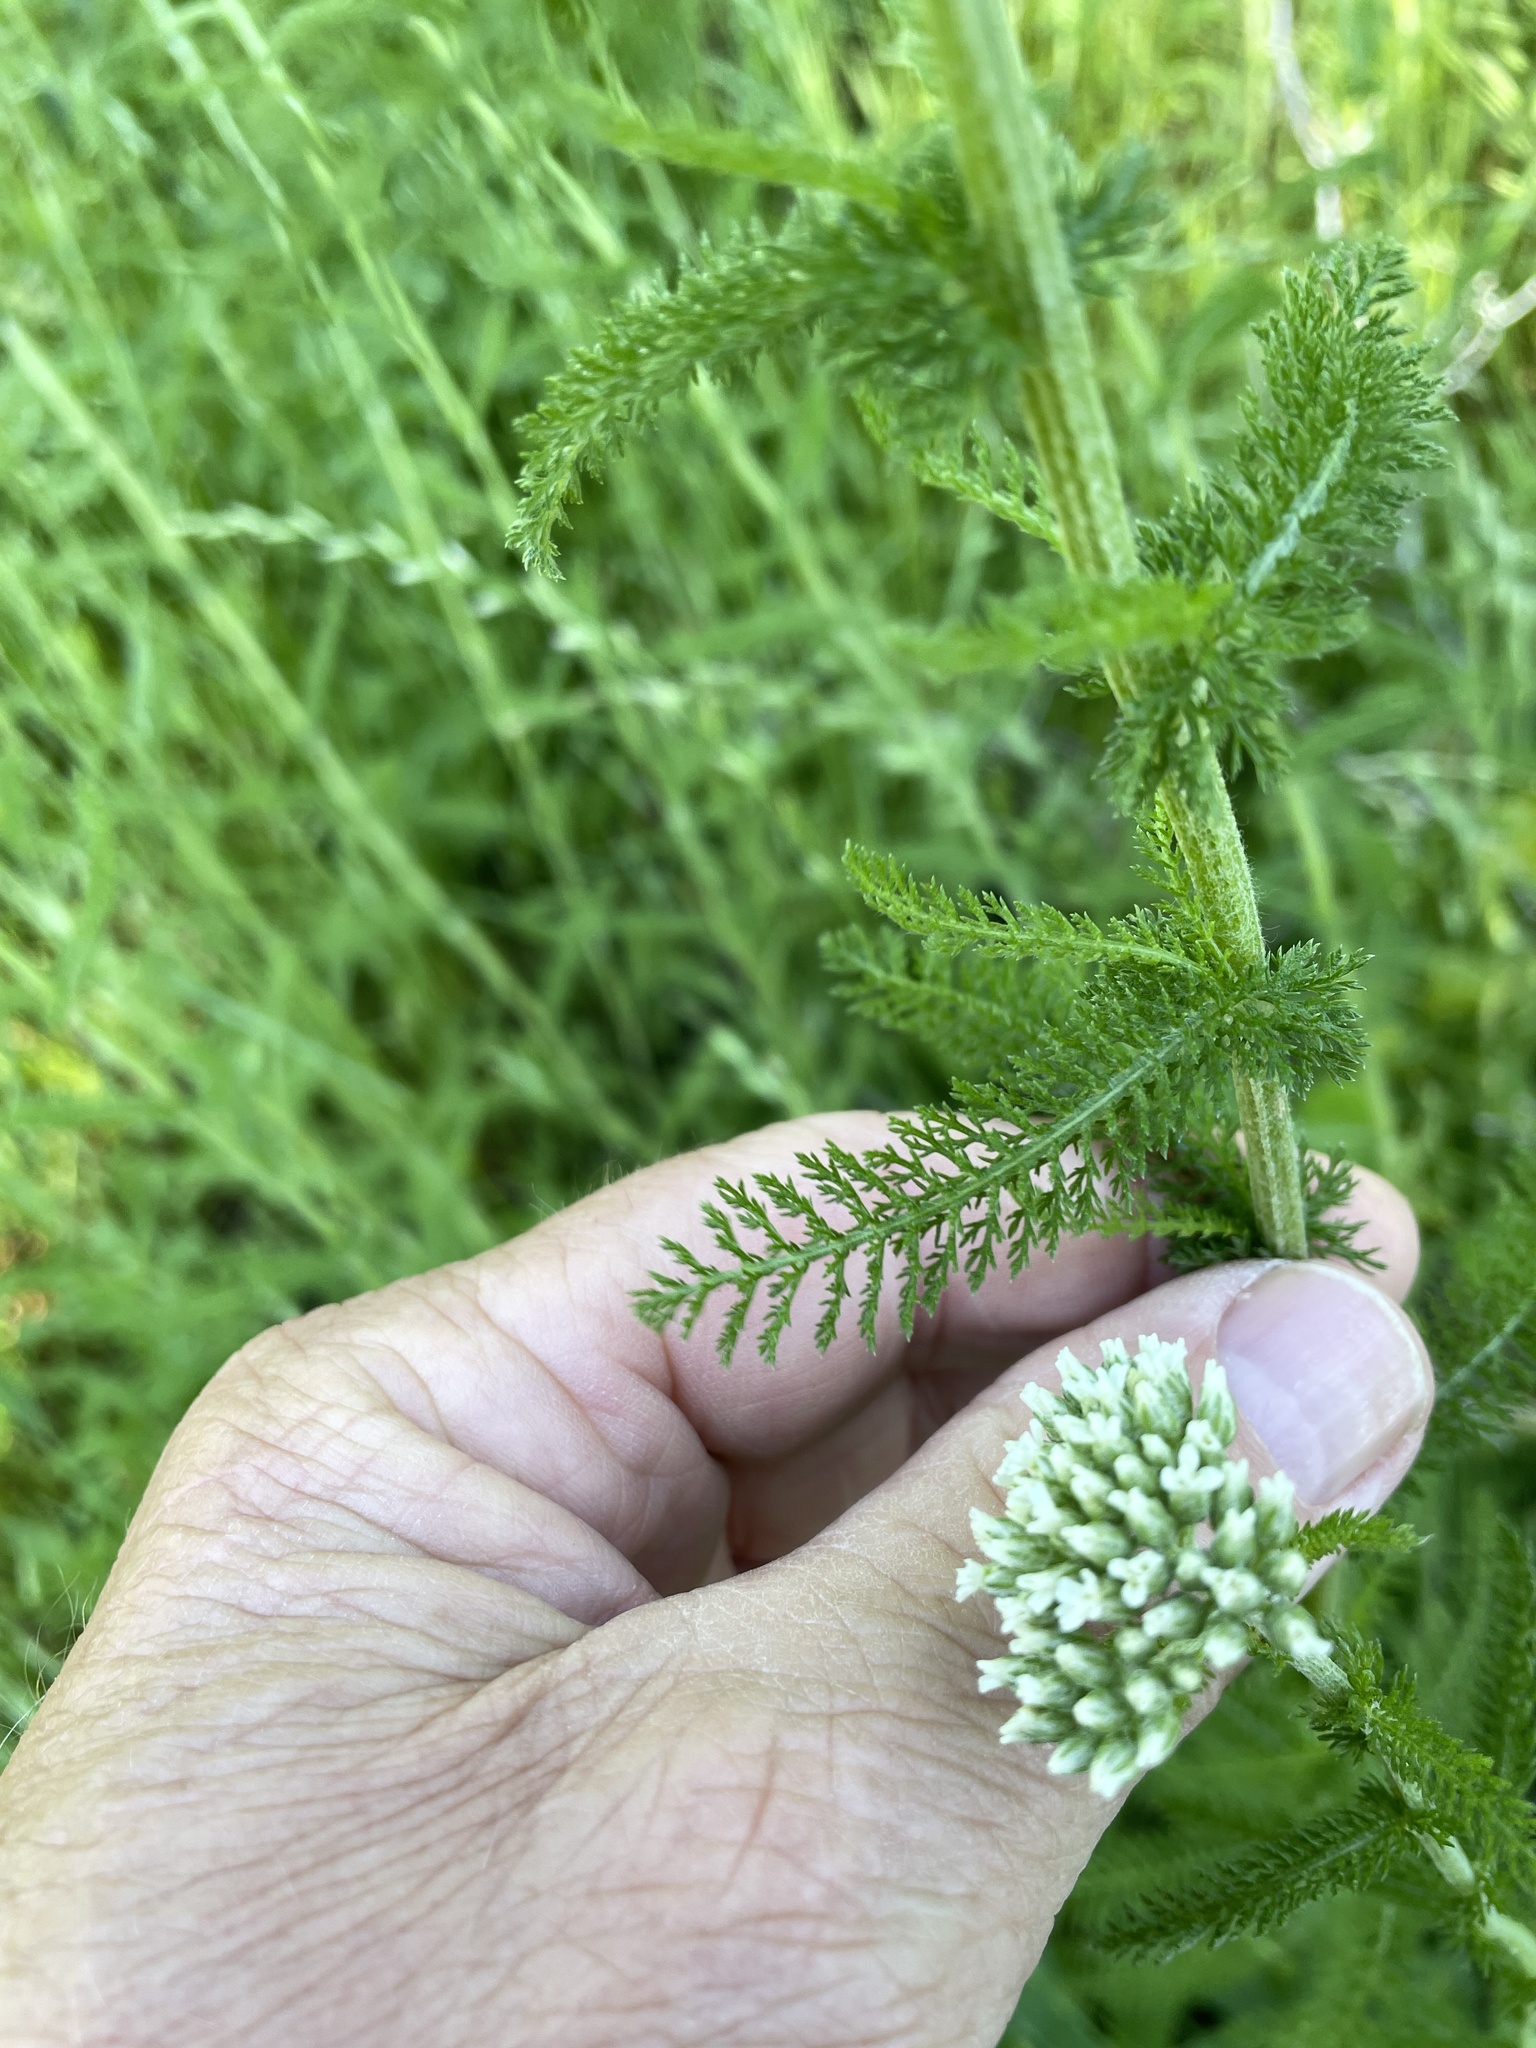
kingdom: Plantae
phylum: Tracheophyta
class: Magnoliopsida
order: Asterales
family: Asteraceae
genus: Achillea
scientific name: Achillea millefolium
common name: Yarrow
